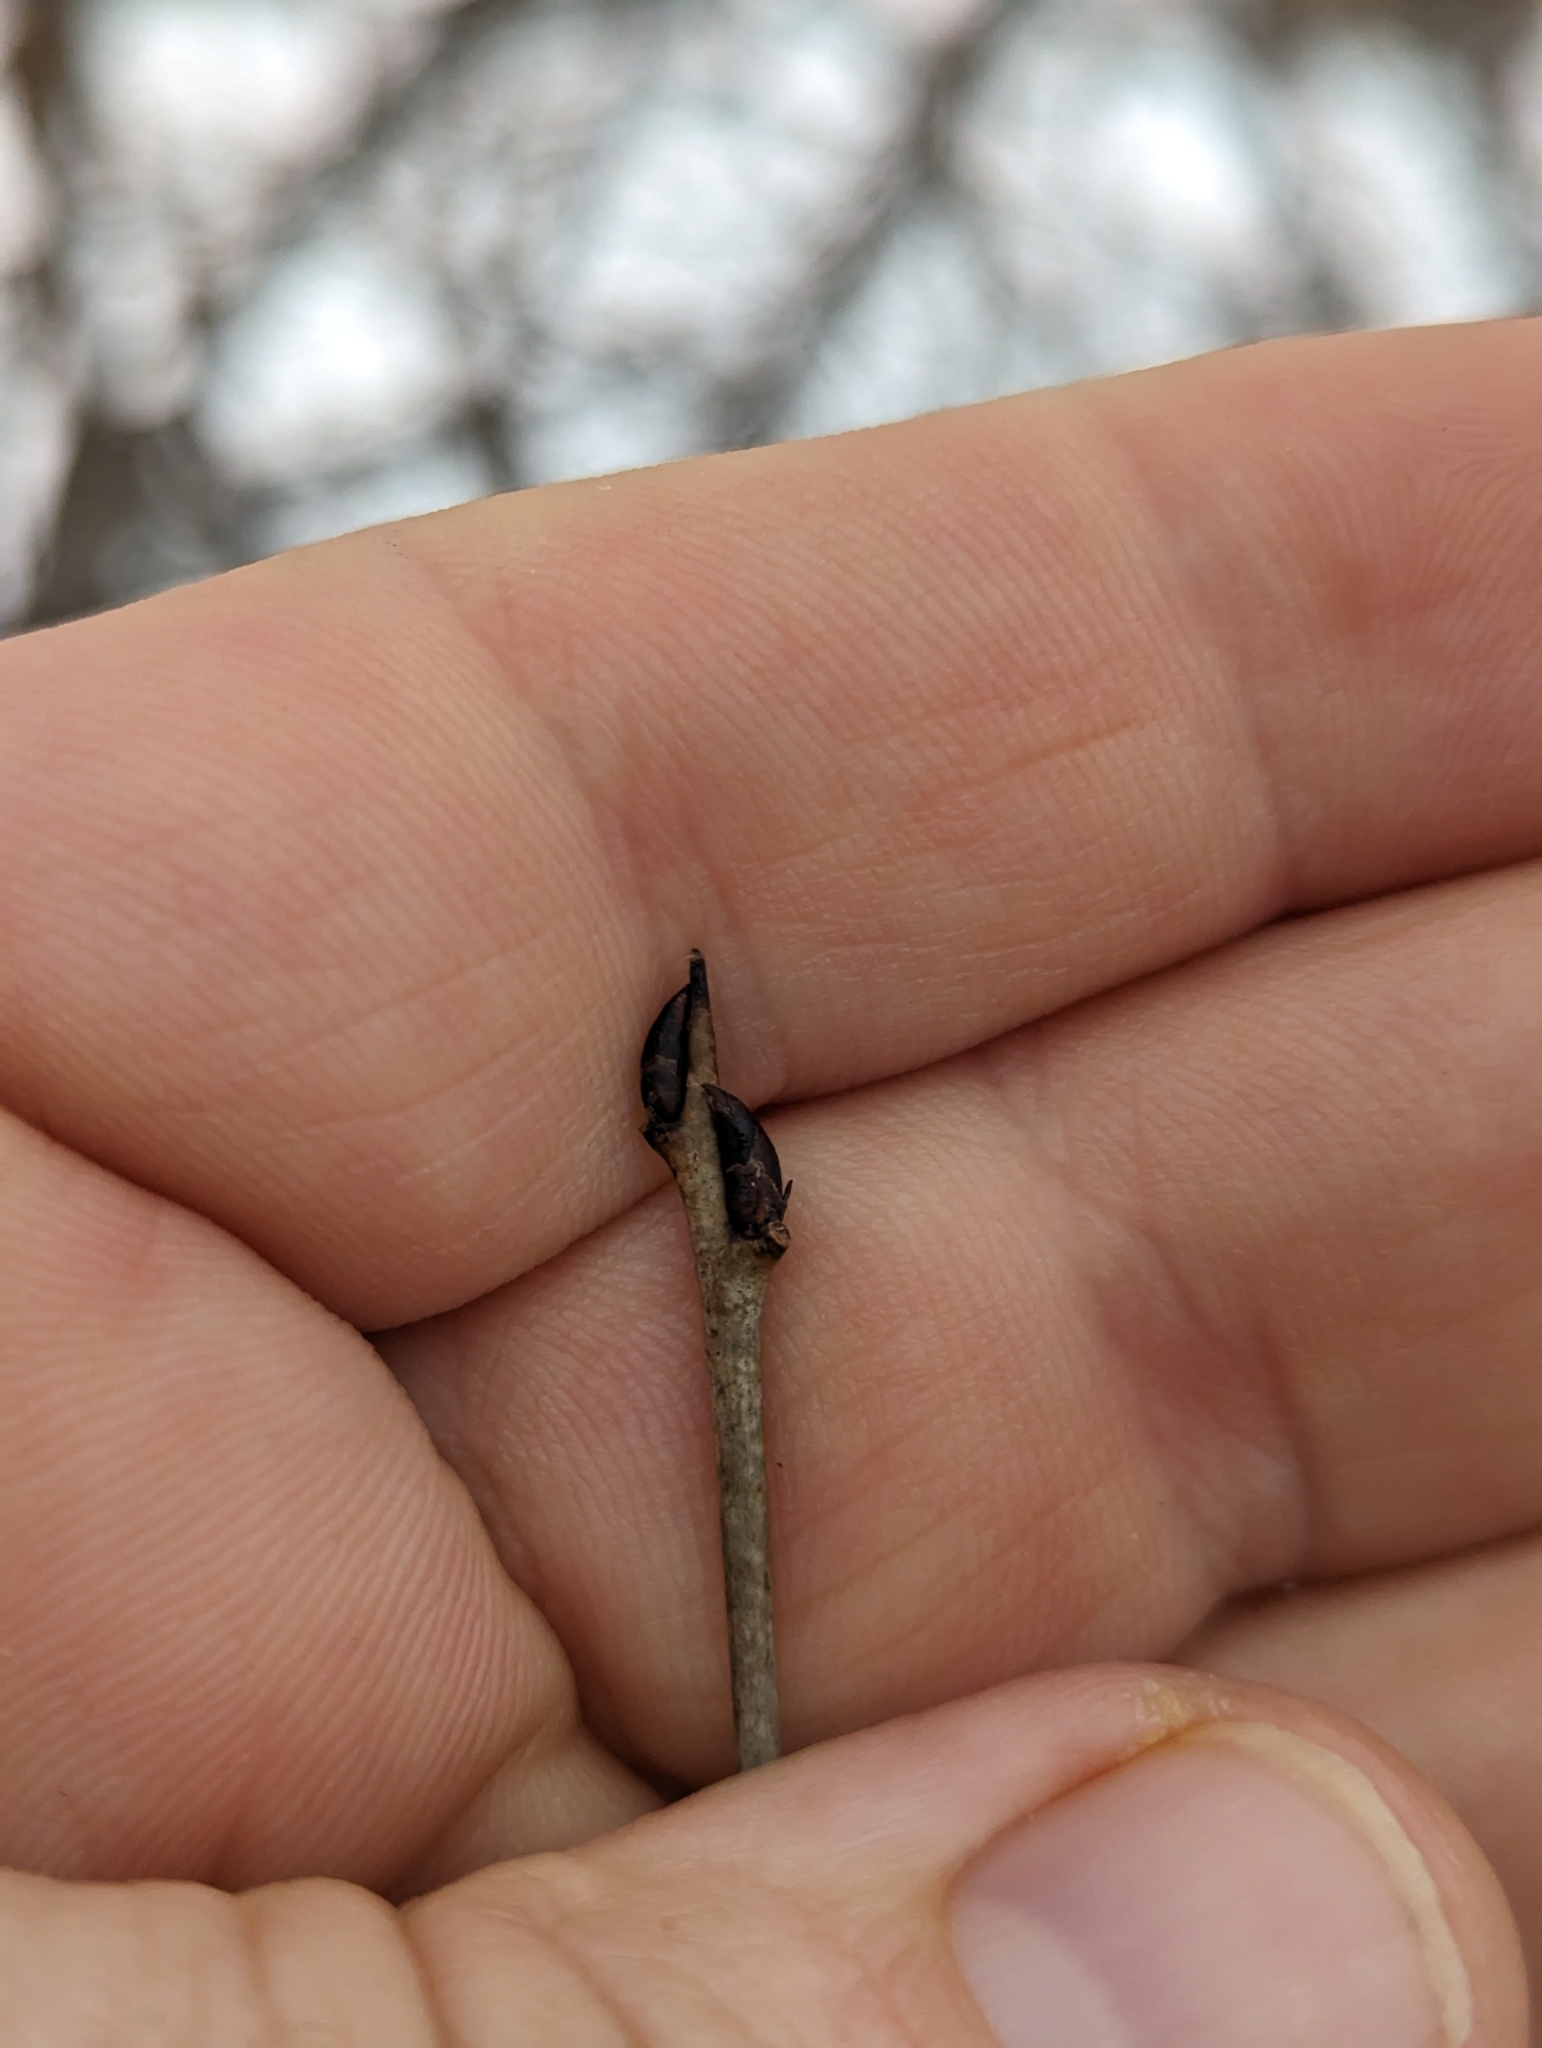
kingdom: Plantae
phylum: Tracheophyta
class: Magnoliopsida
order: Rosales
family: Rhamnaceae
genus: Rhamnus
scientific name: Rhamnus cathartica
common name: Common buckthorn
